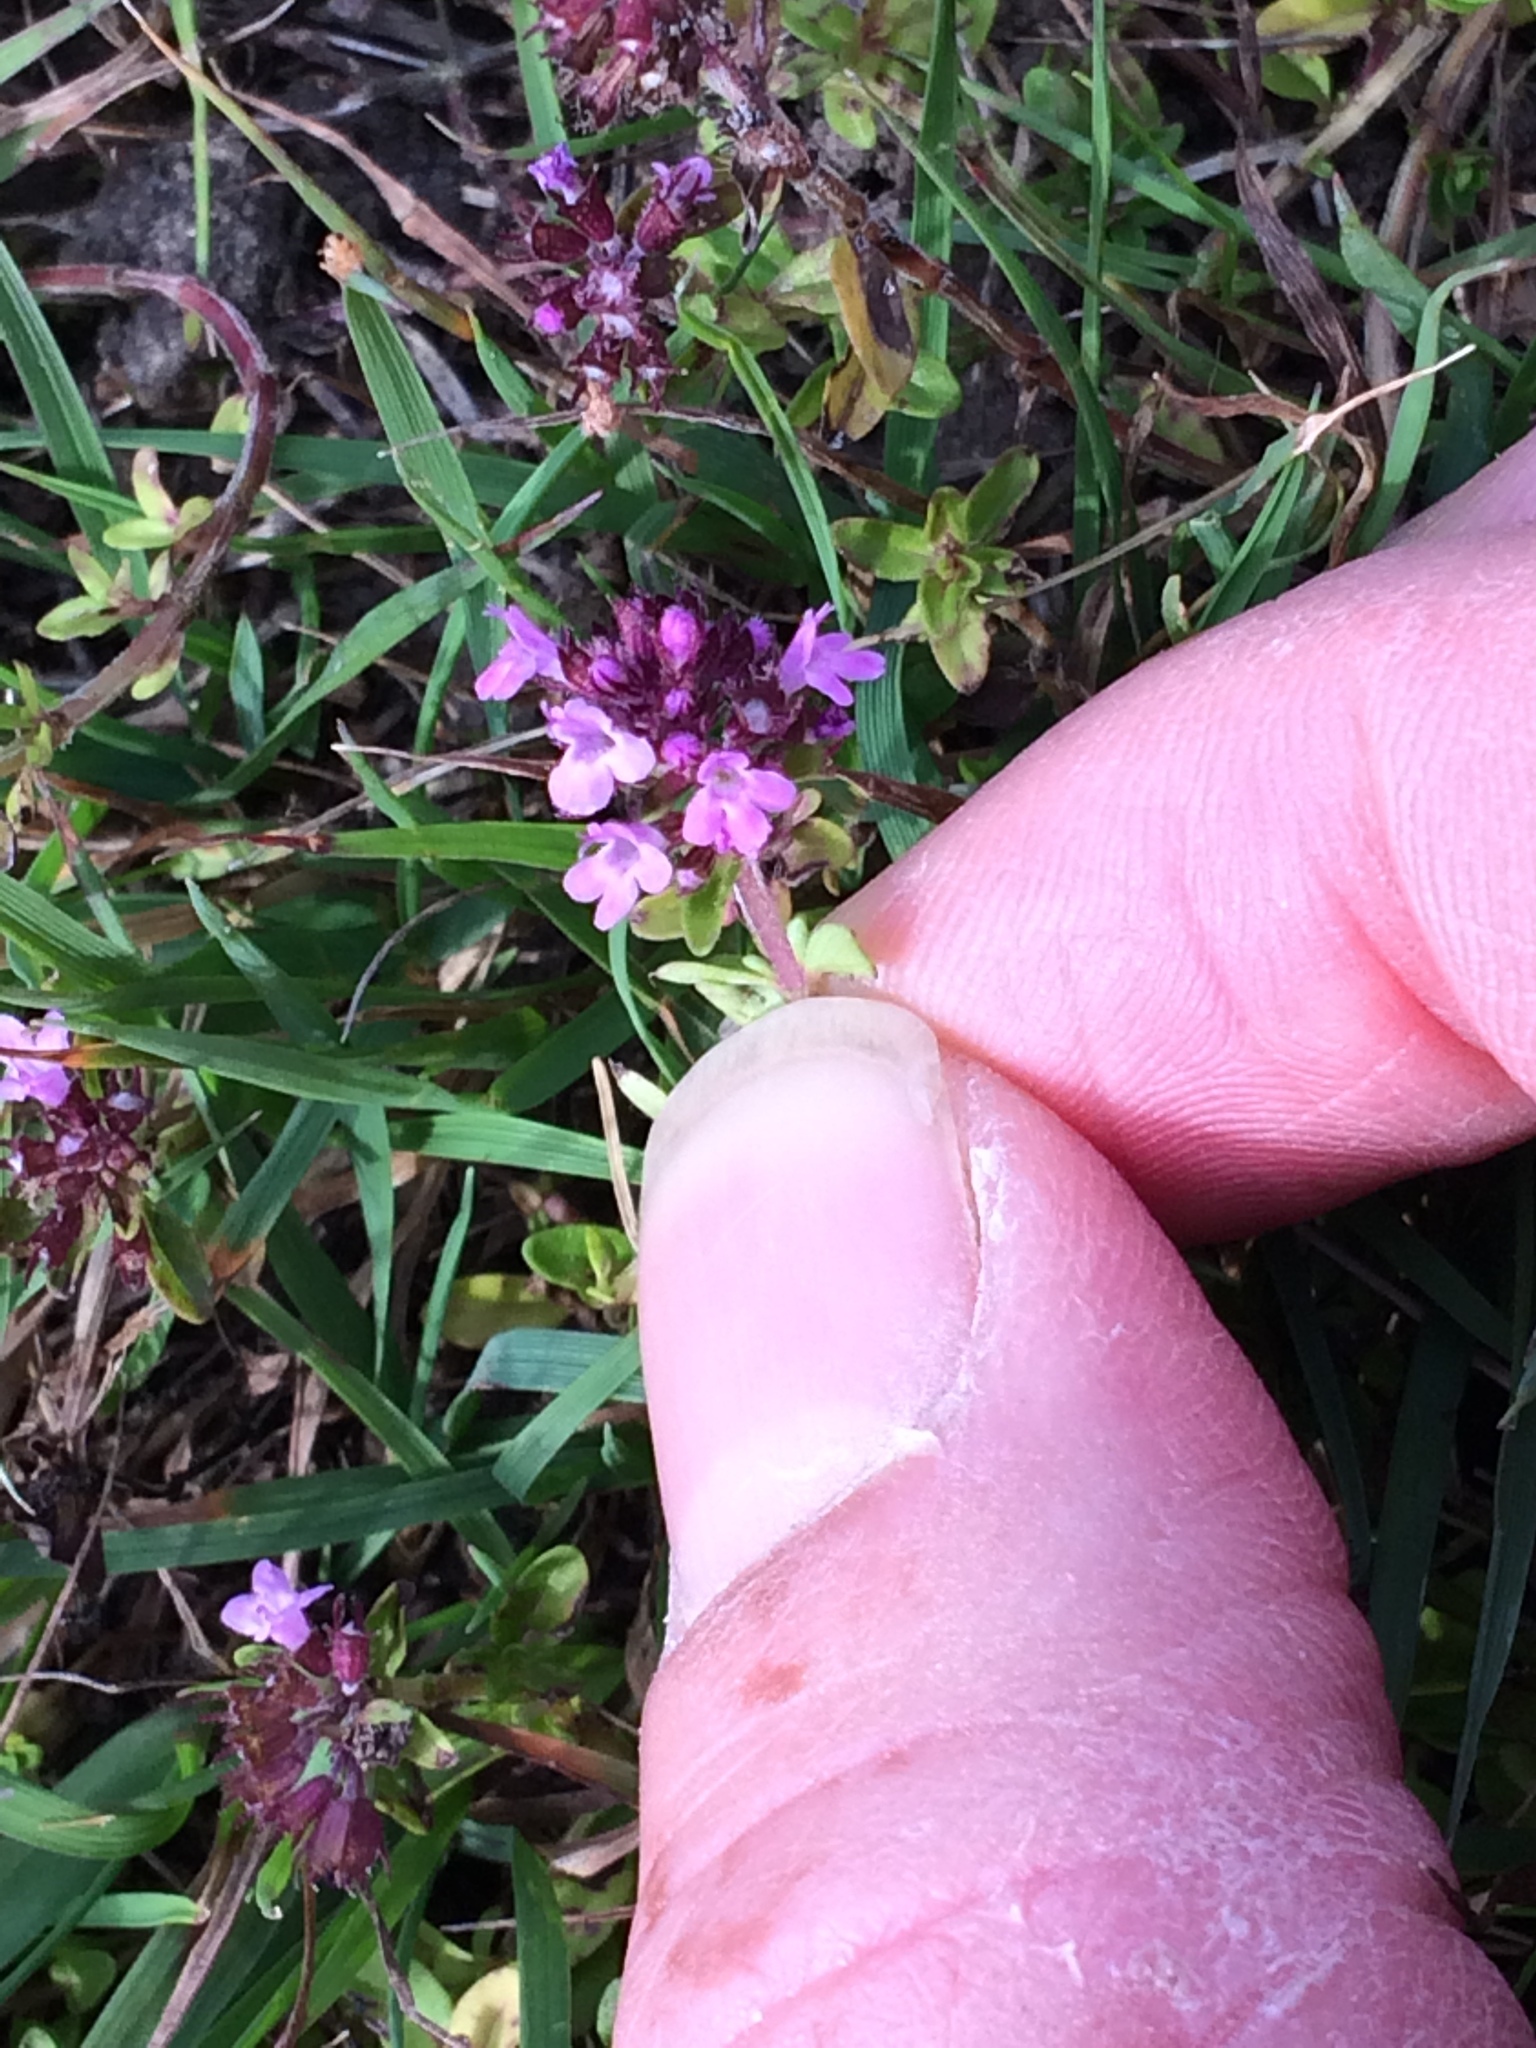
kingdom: Plantae
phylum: Tracheophyta
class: Magnoliopsida
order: Lamiales
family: Lamiaceae
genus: Thymus
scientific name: Thymus pulegioides
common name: Large thyme
